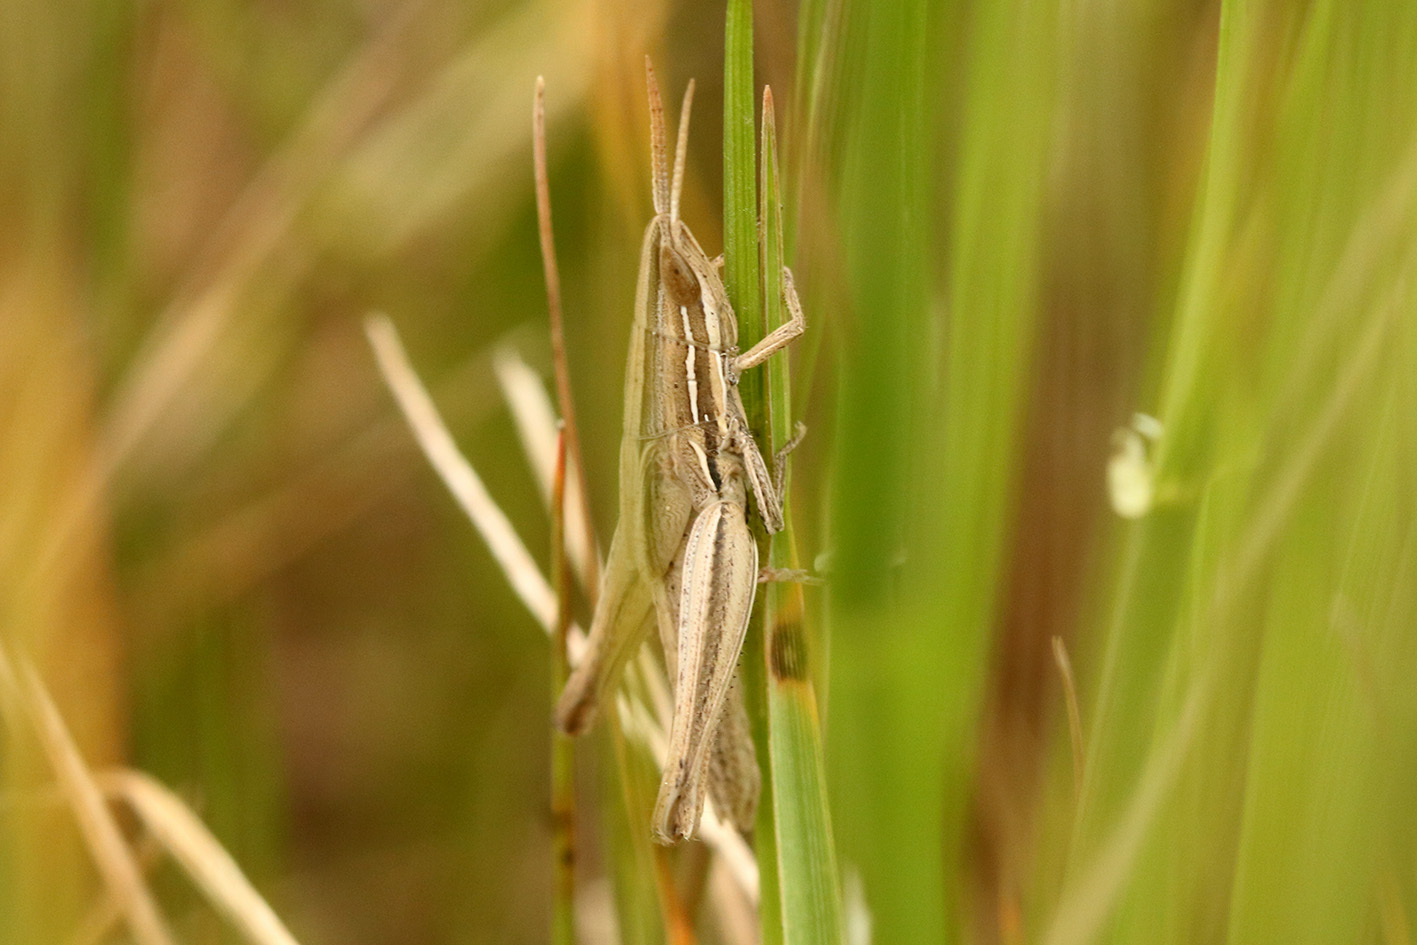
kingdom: Animalia
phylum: Arthropoda
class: Insecta
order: Orthoptera
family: Acrididae
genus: Sinipta
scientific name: Sinipta dalmani
